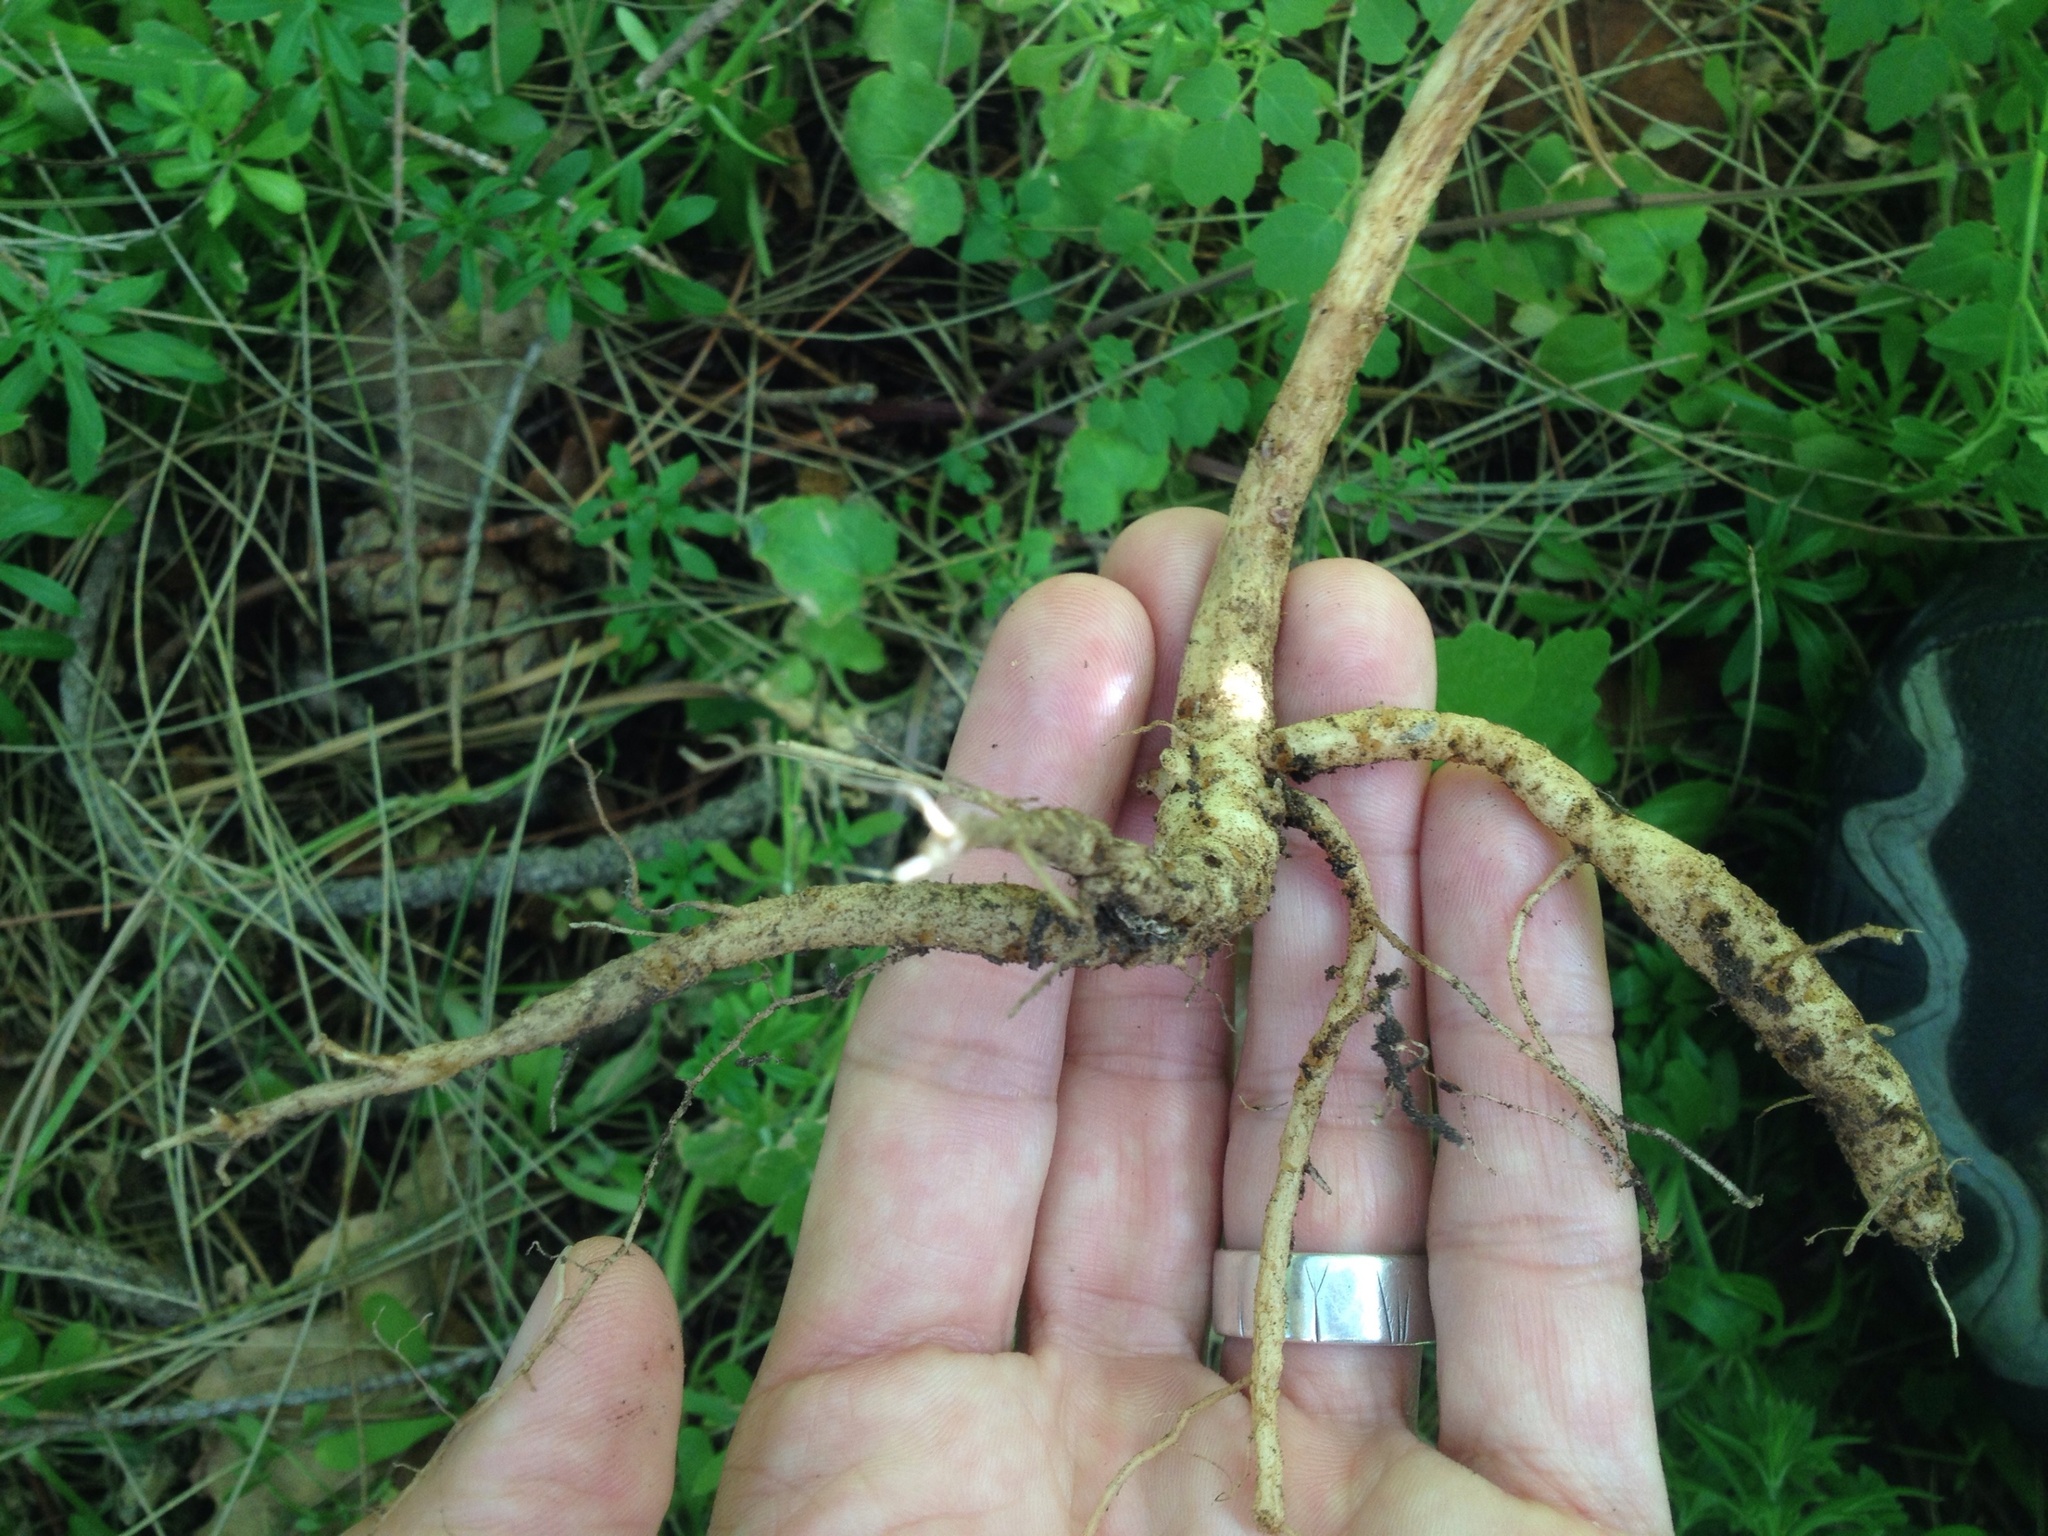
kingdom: Plantae
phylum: Tracheophyta
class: Magnoliopsida
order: Lamiales
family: Bignoniaceae
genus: Eccremocarpus
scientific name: Eccremocarpus scaber
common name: Chilean glory-flower
